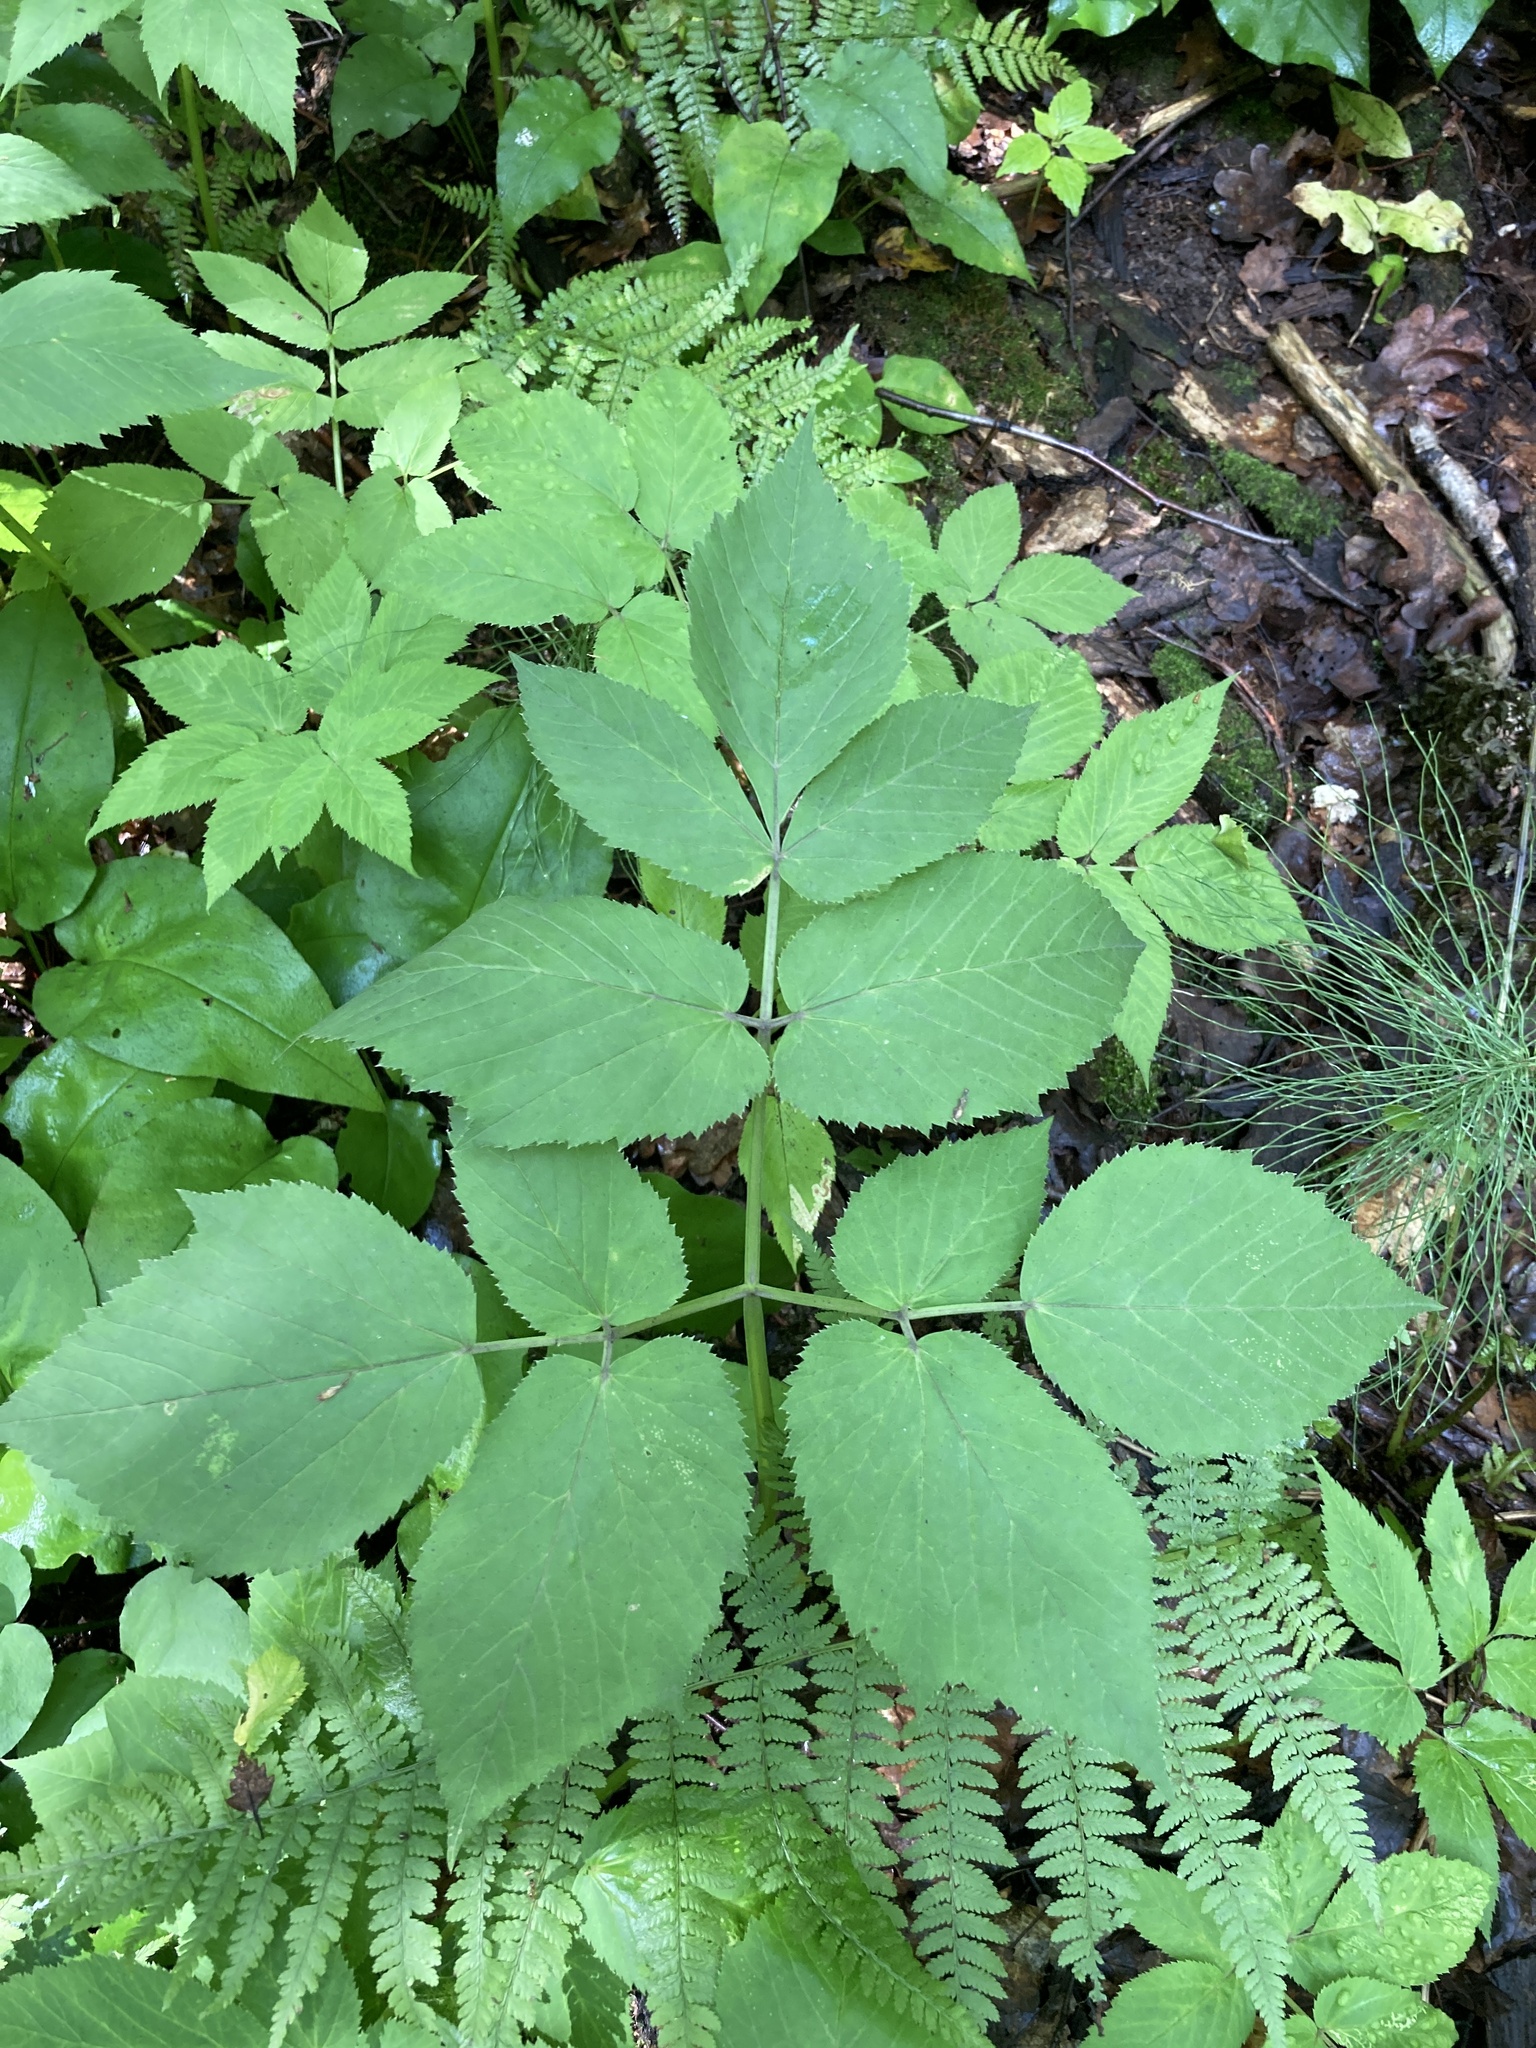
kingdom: Plantae
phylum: Tracheophyta
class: Magnoliopsida
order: Apiales
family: Apiaceae
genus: Aegopodium
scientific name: Aegopodium podagraria
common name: Ground-elder
